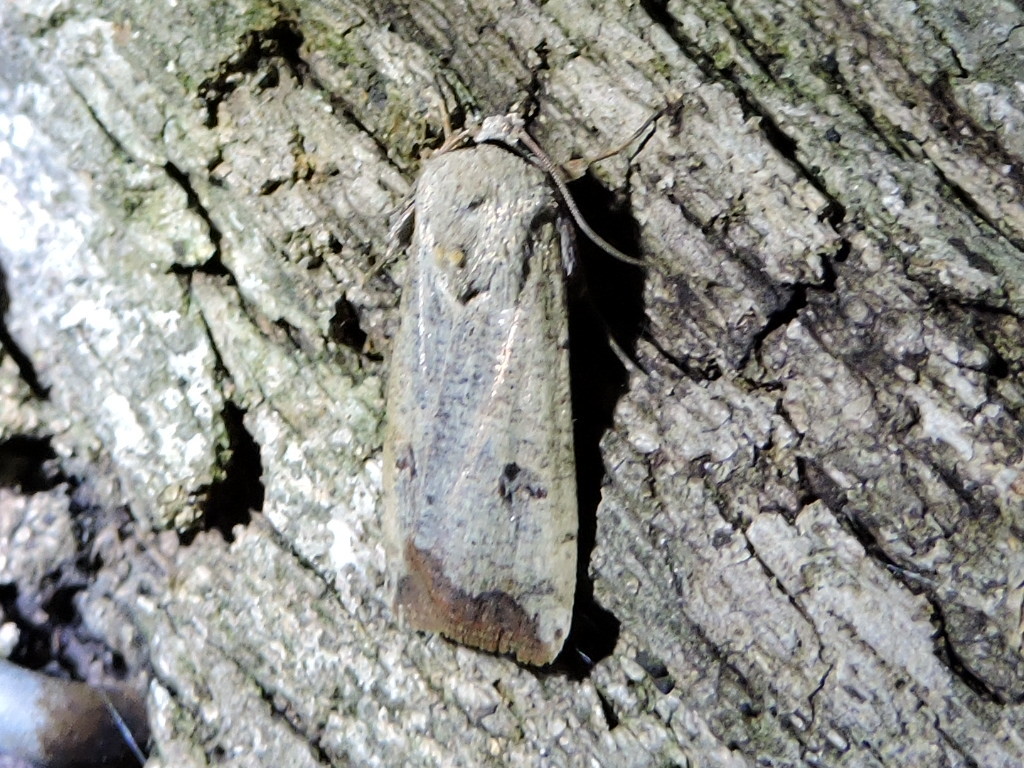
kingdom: Animalia
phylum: Arthropoda
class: Insecta
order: Lepidoptera
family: Noctuidae
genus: Anicla
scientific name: Anicla infecta
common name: Green cutworm
